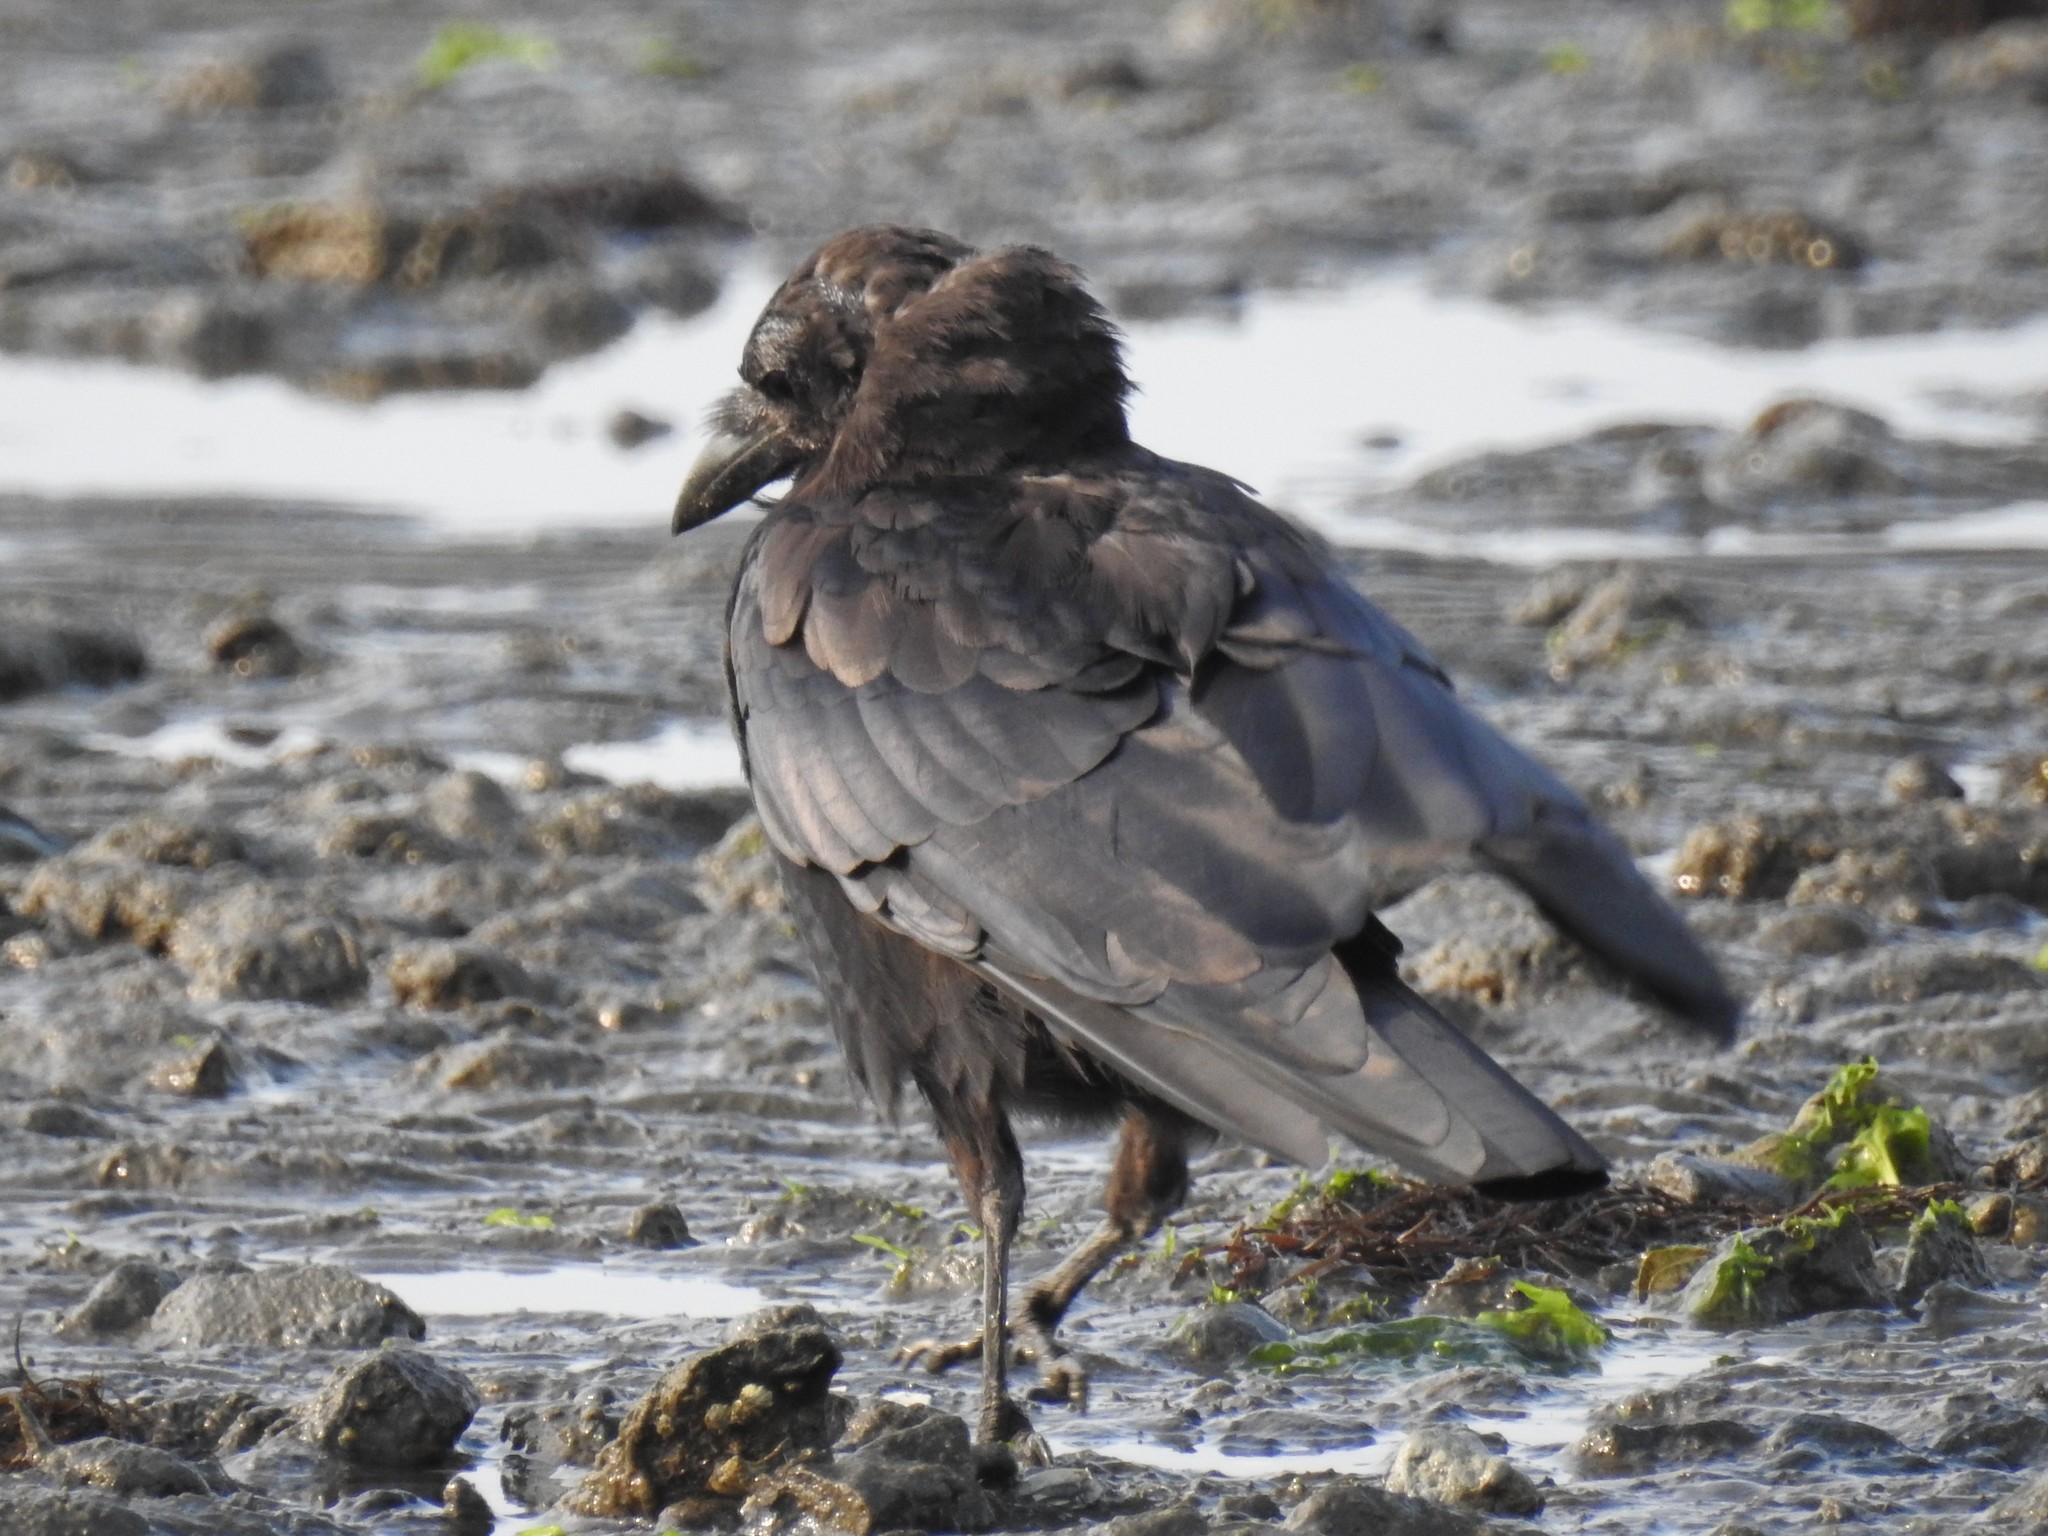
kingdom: Animalia
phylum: Chordata
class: Aves
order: Passeriformes
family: Corvidae
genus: Corvus
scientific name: Corvus brachyrhynchos
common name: American crow
